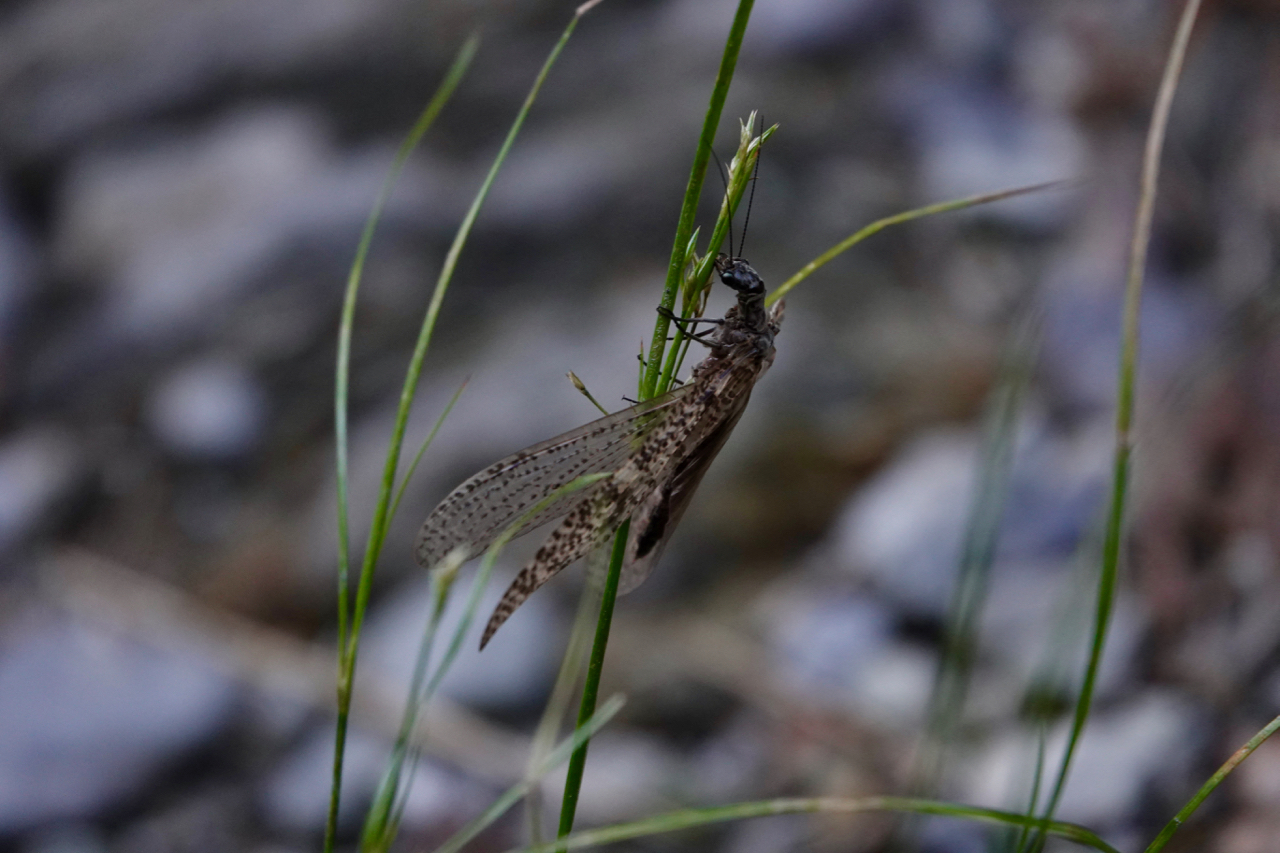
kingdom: Animalia
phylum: Arthropoda
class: Insecta
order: Megaloptera
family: Corydalidae
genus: Archichauliodes
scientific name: Archichauliodes diversus
